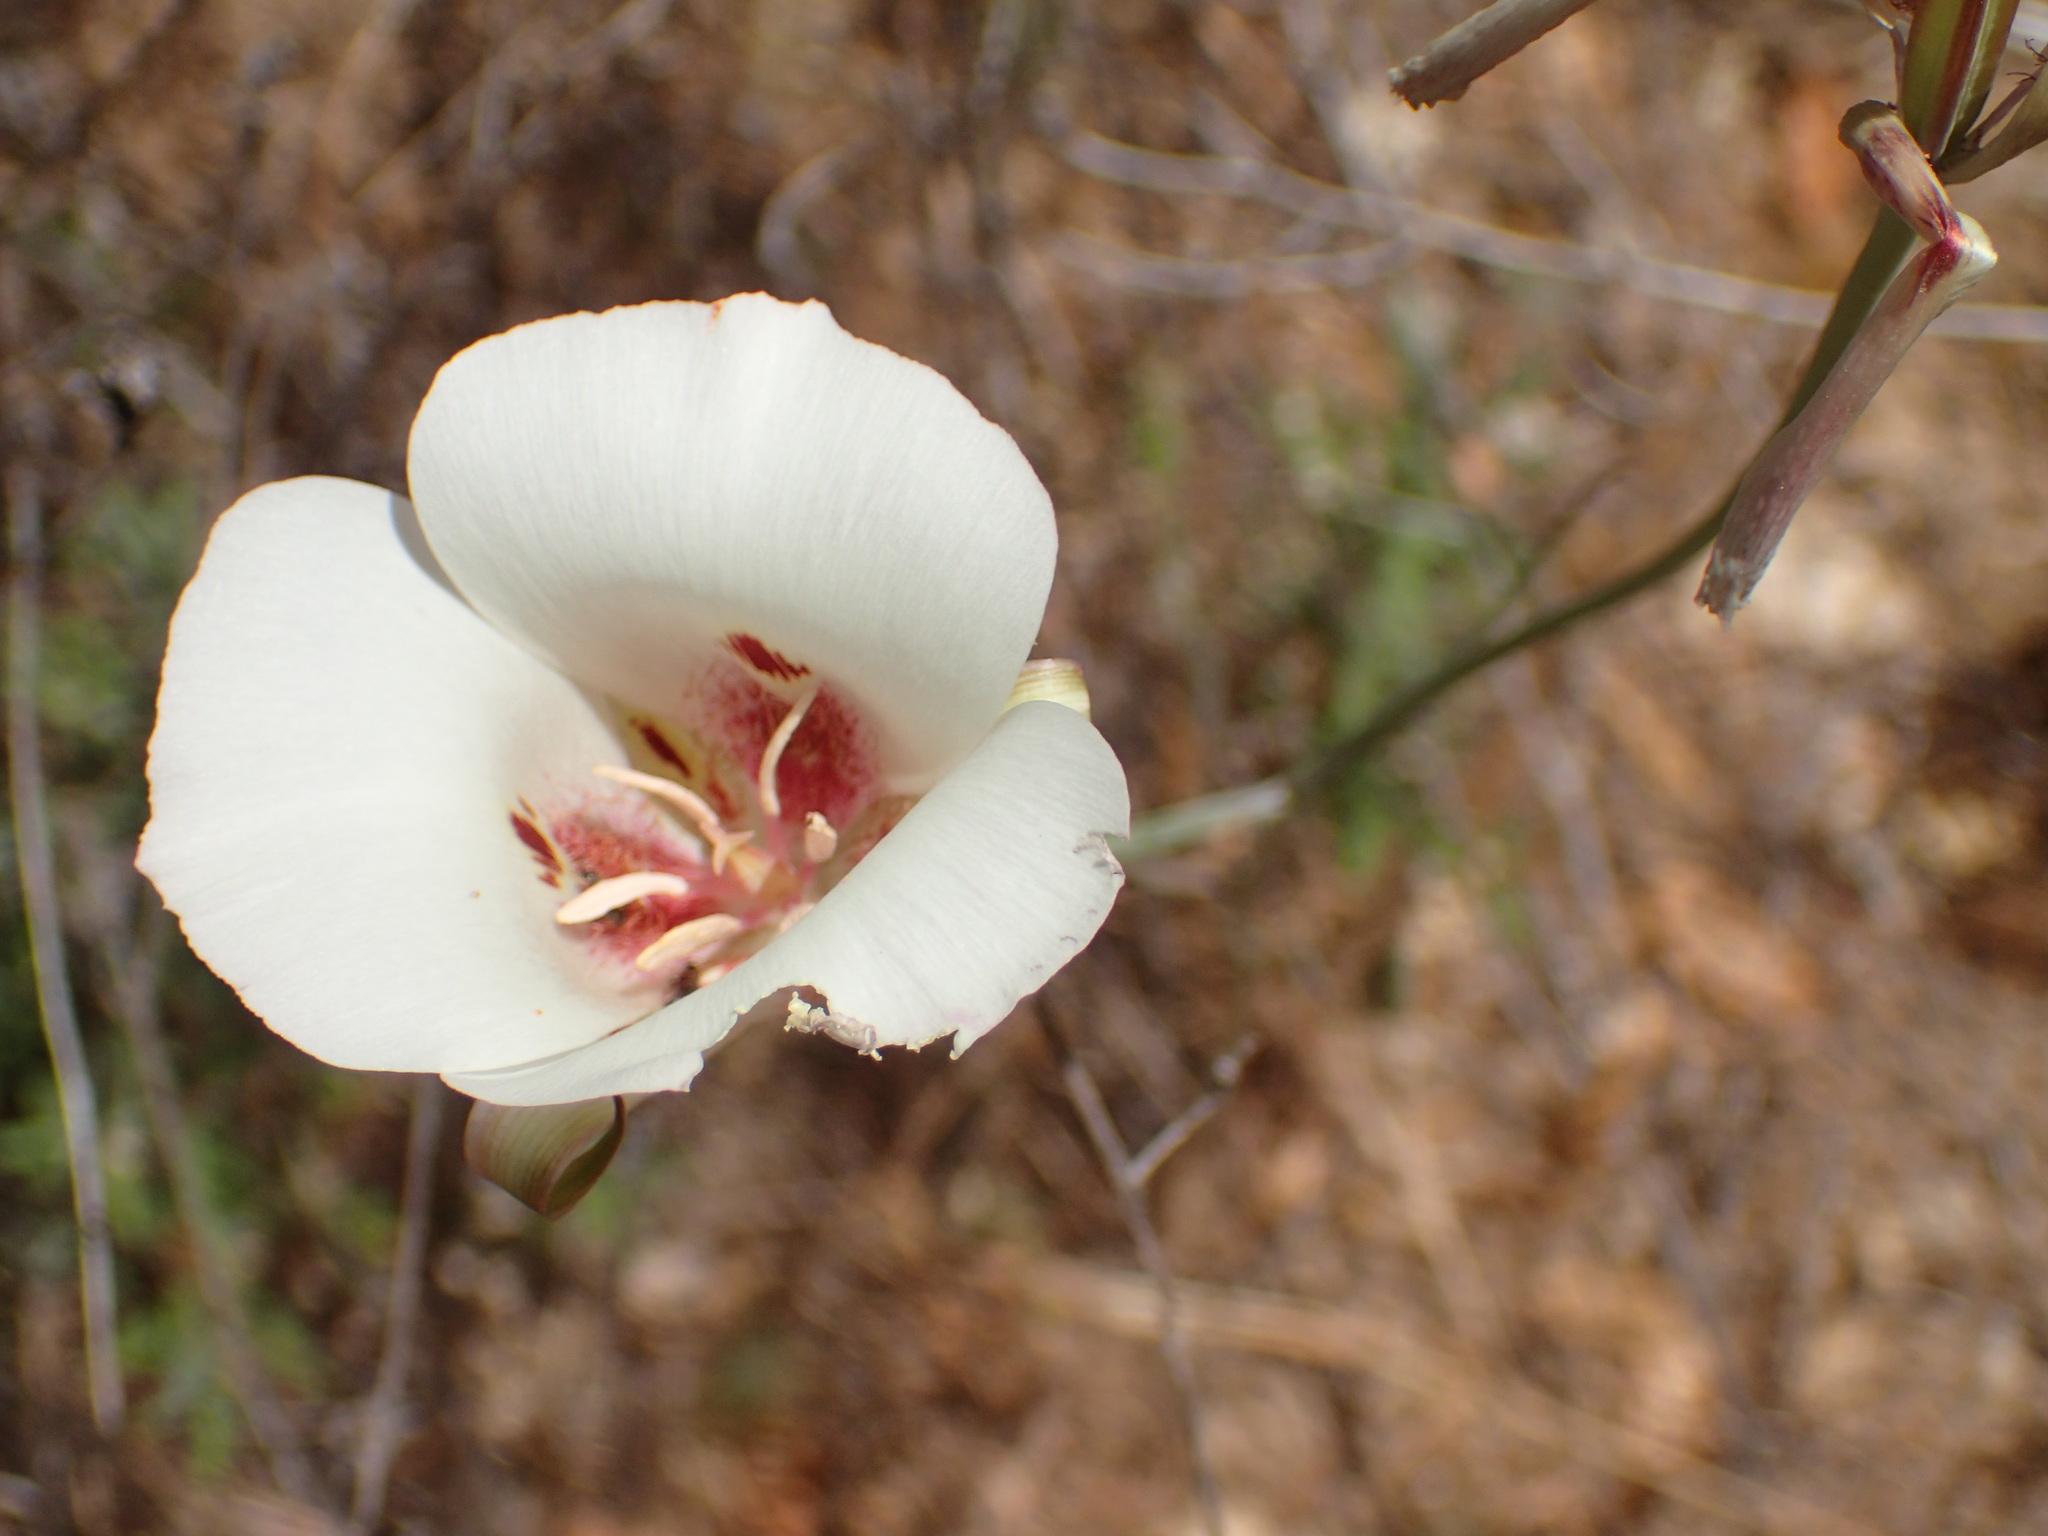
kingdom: Plantae
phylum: Tracheophyta
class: Liliopsida
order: Liliales
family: Liliaceae
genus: Calochortus
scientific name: Calochortus venustus
